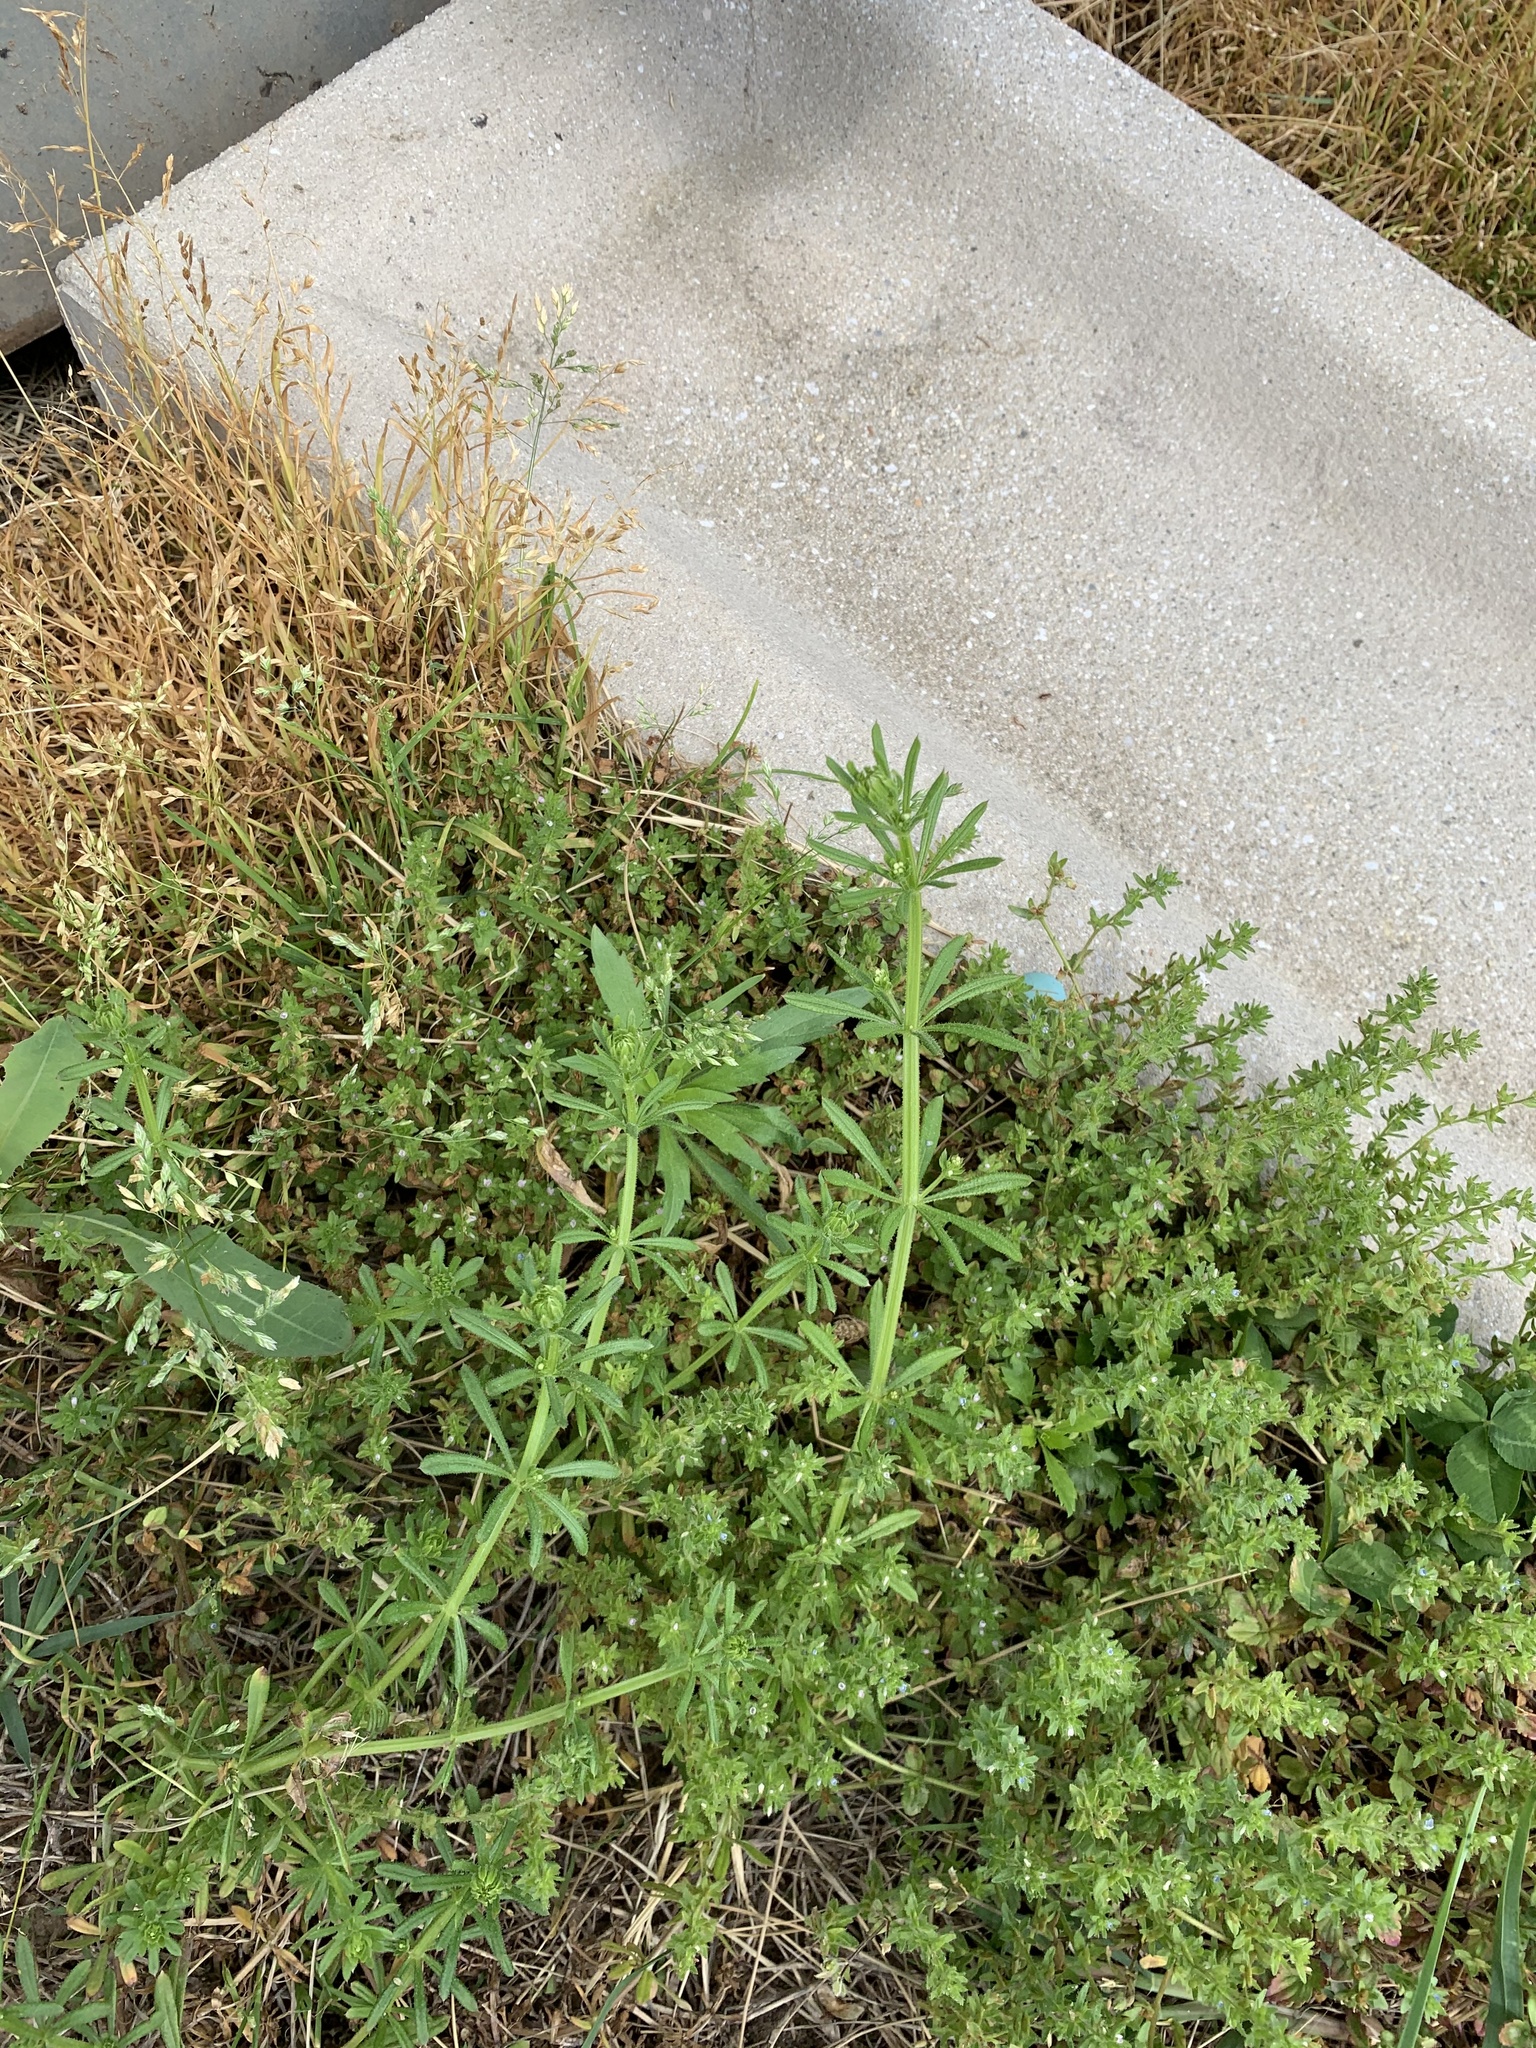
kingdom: Plantae
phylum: Tracheophyta
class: Magnoliopsida
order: Gentianales
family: Rubiaceae
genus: Galium
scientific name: Galium aparine
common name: Cleavers
